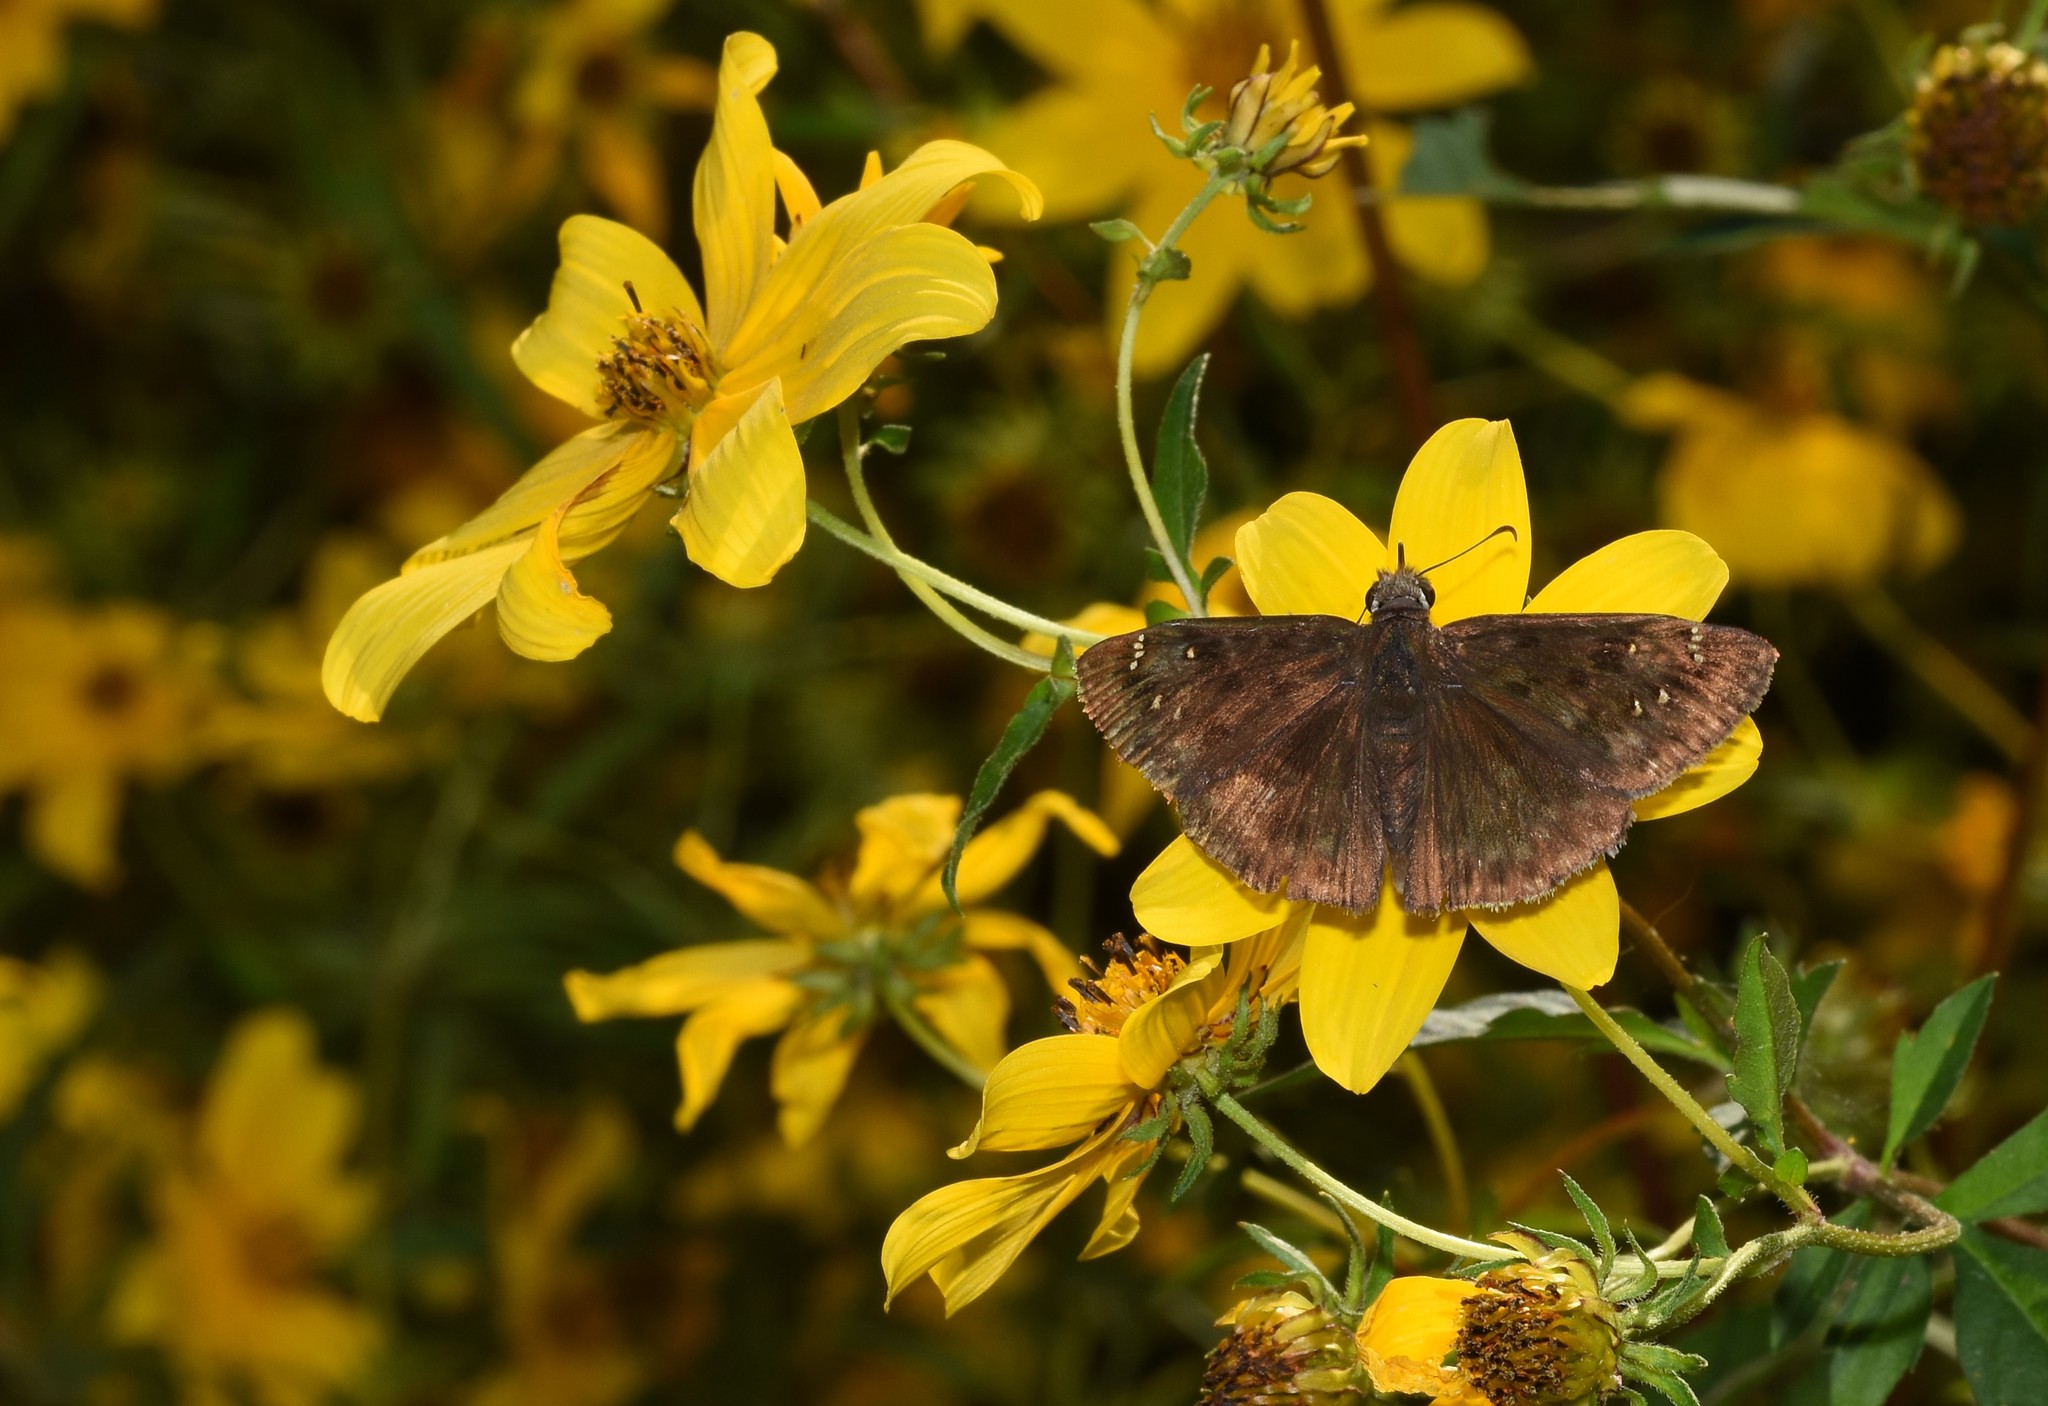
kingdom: Animalia
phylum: Arthropoda
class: Insecta
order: Lepidoptera
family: Hesperiidae
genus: Erynnis
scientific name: Erynnis horatius
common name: Horace's duskywing
